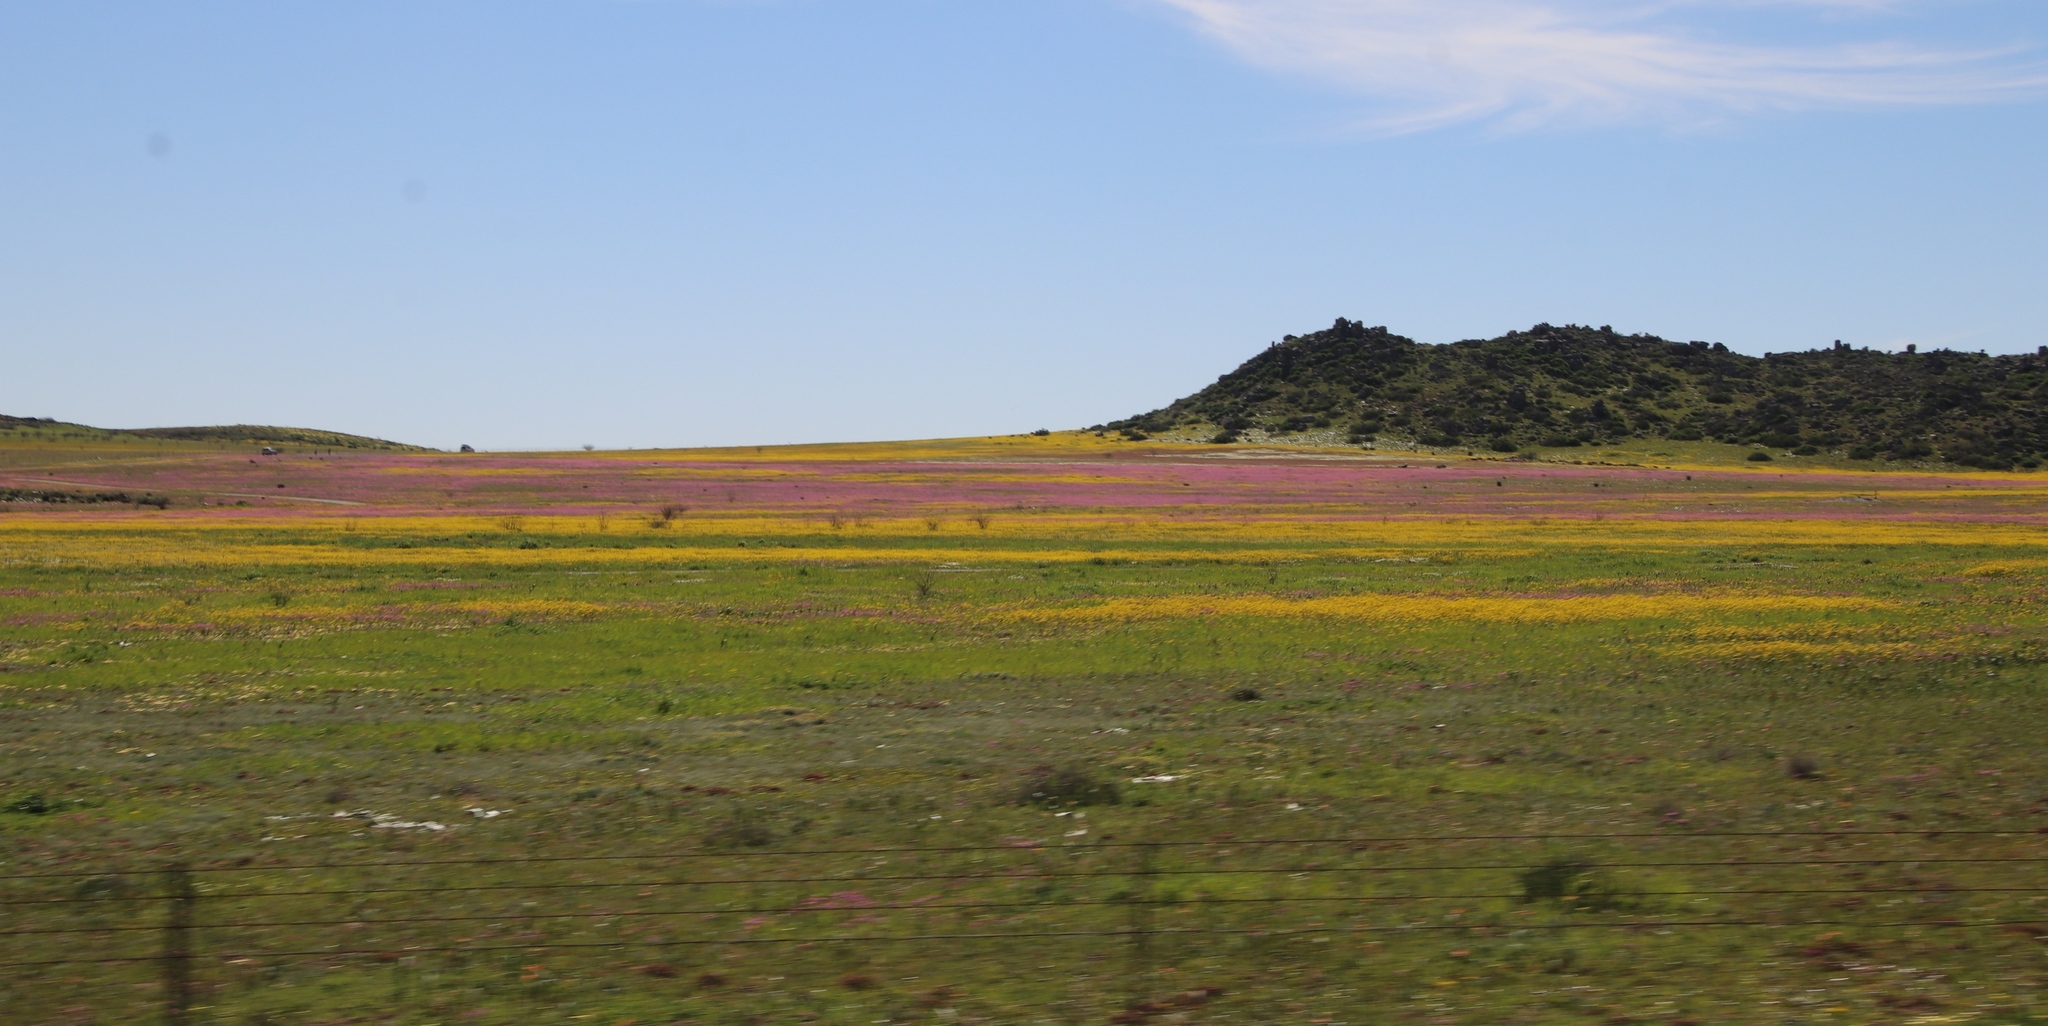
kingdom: Plantae
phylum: Tracheophyta
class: Magnoliopsida
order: Asterales
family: Asteraceae
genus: Senecio
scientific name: Senecio abruptus
